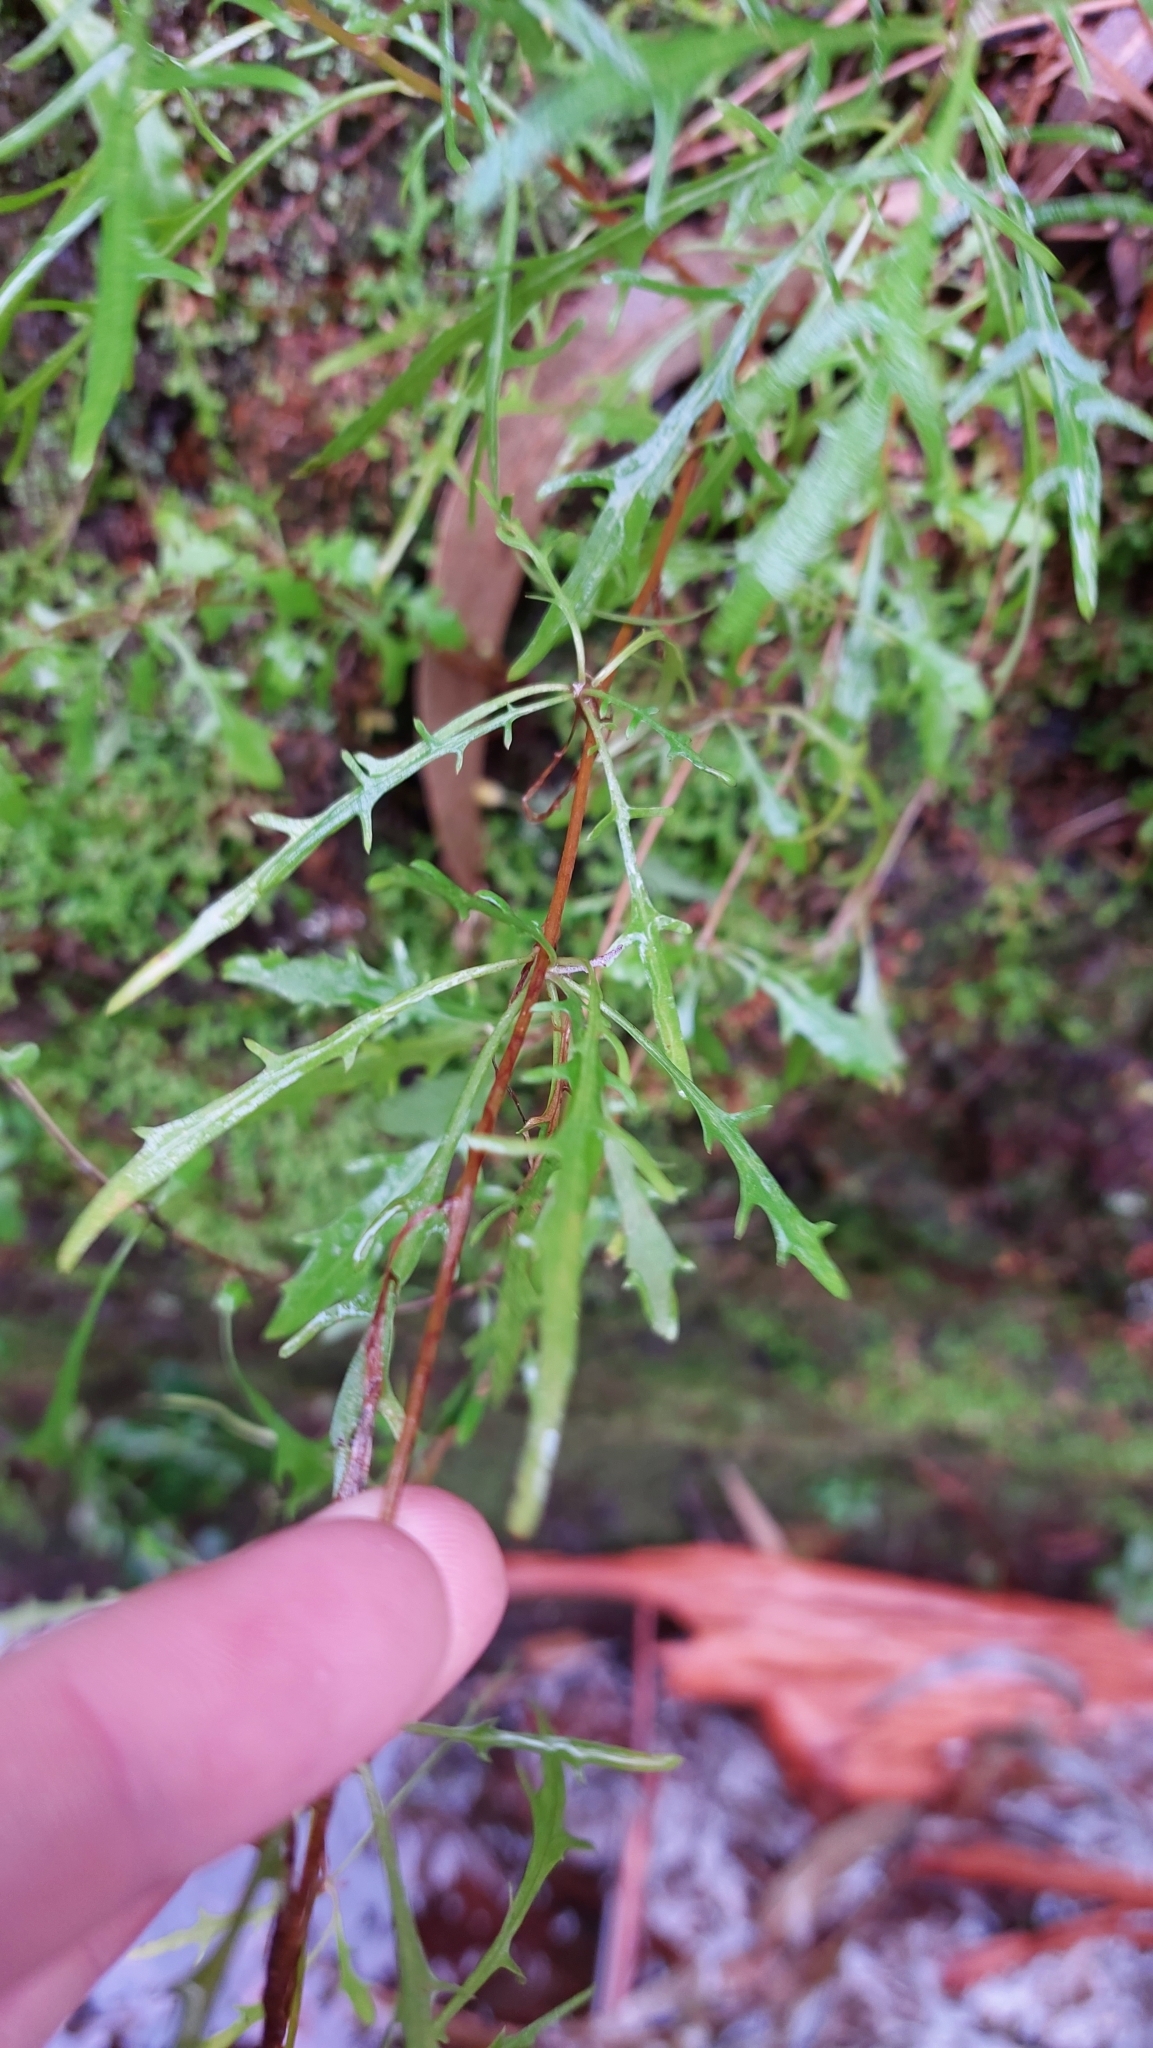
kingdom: Plantae
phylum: Tracheophyta
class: Magnoliopsida
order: Asterales
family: Asteraceae
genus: Tolpis
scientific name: Tolpis succulenta
